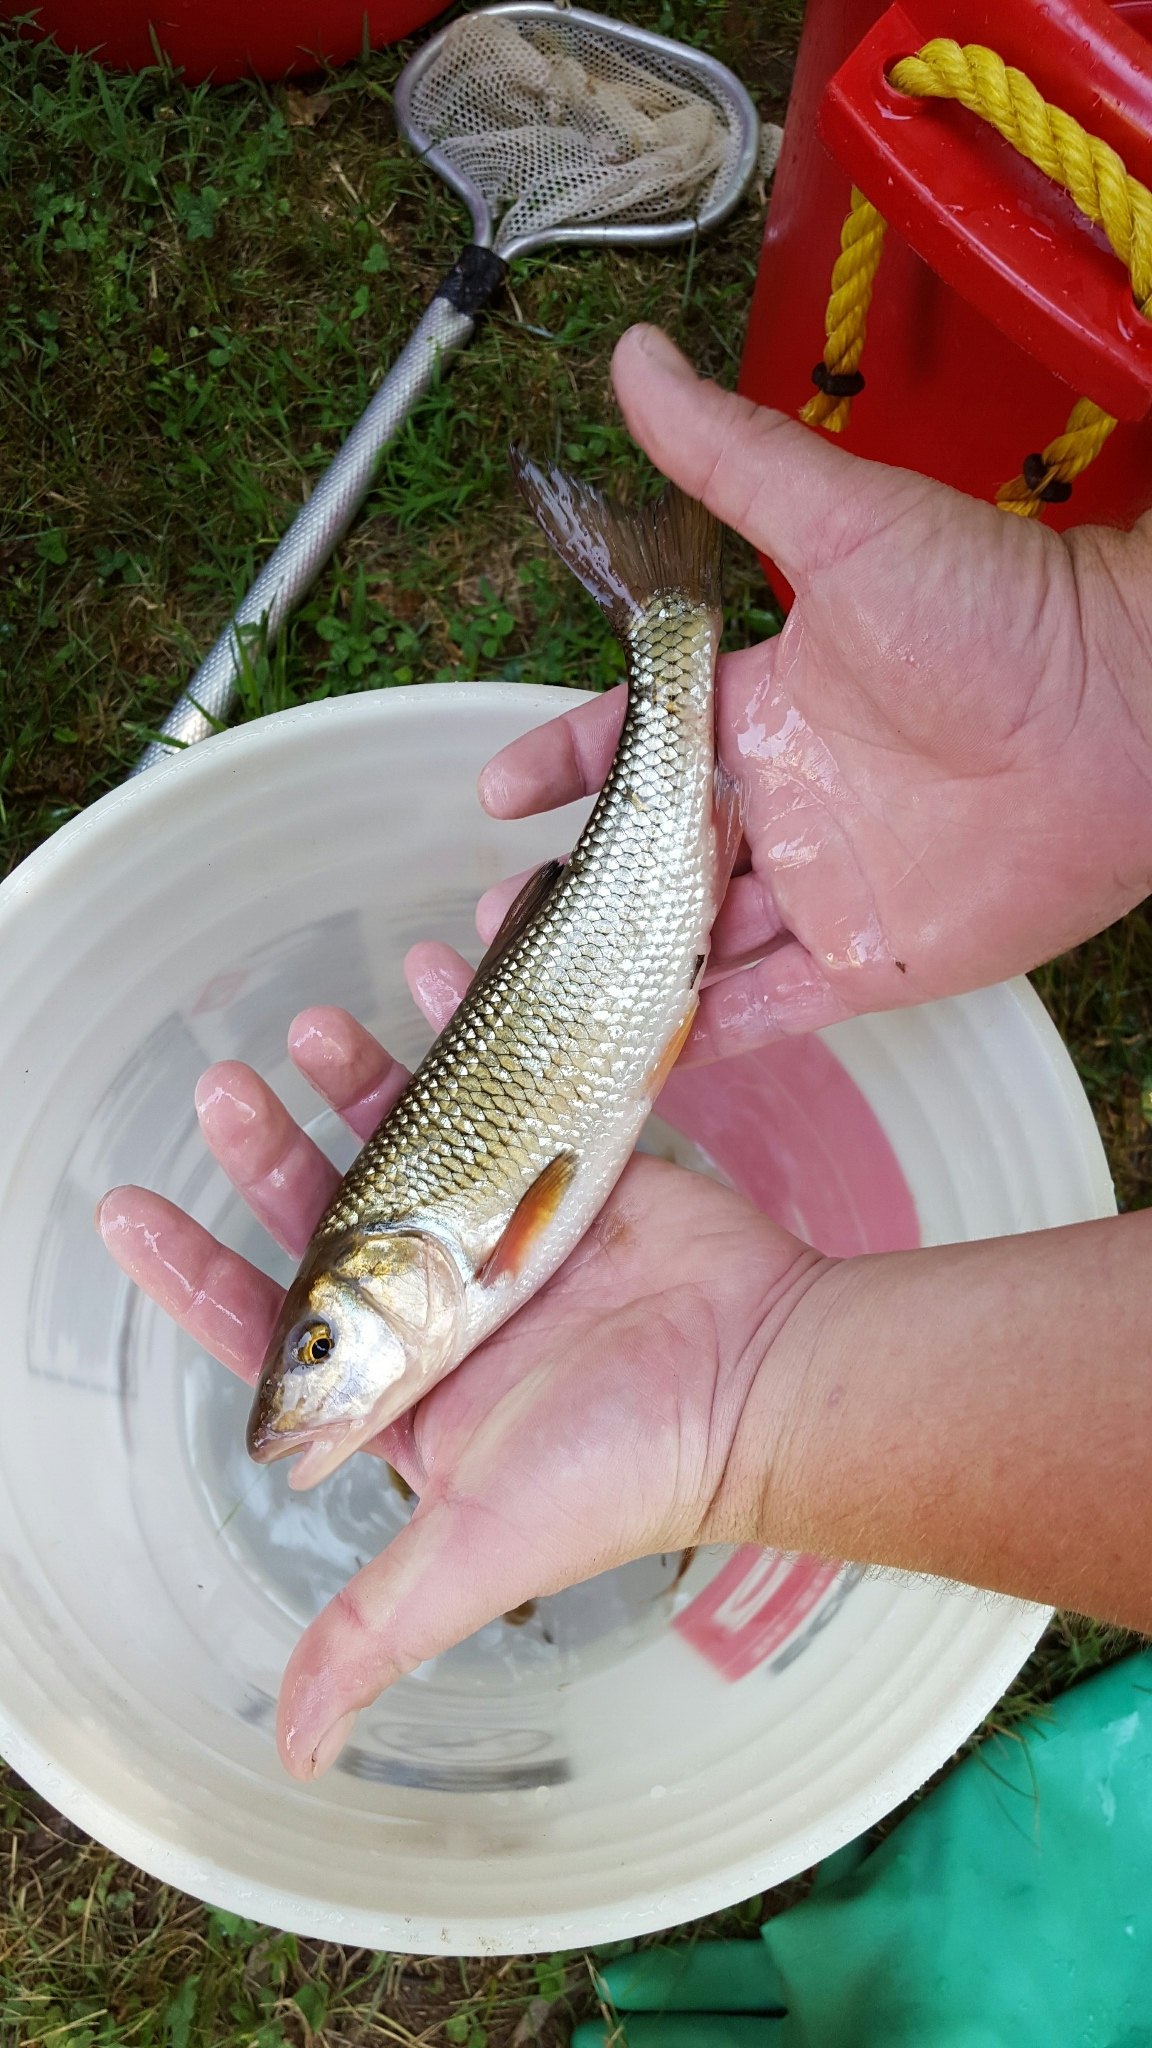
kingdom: Animalia
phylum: Chordata
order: Cypriniformes
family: Cyprinidae
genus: Semotilus
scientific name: Semotilus corporalis
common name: Fallfish
